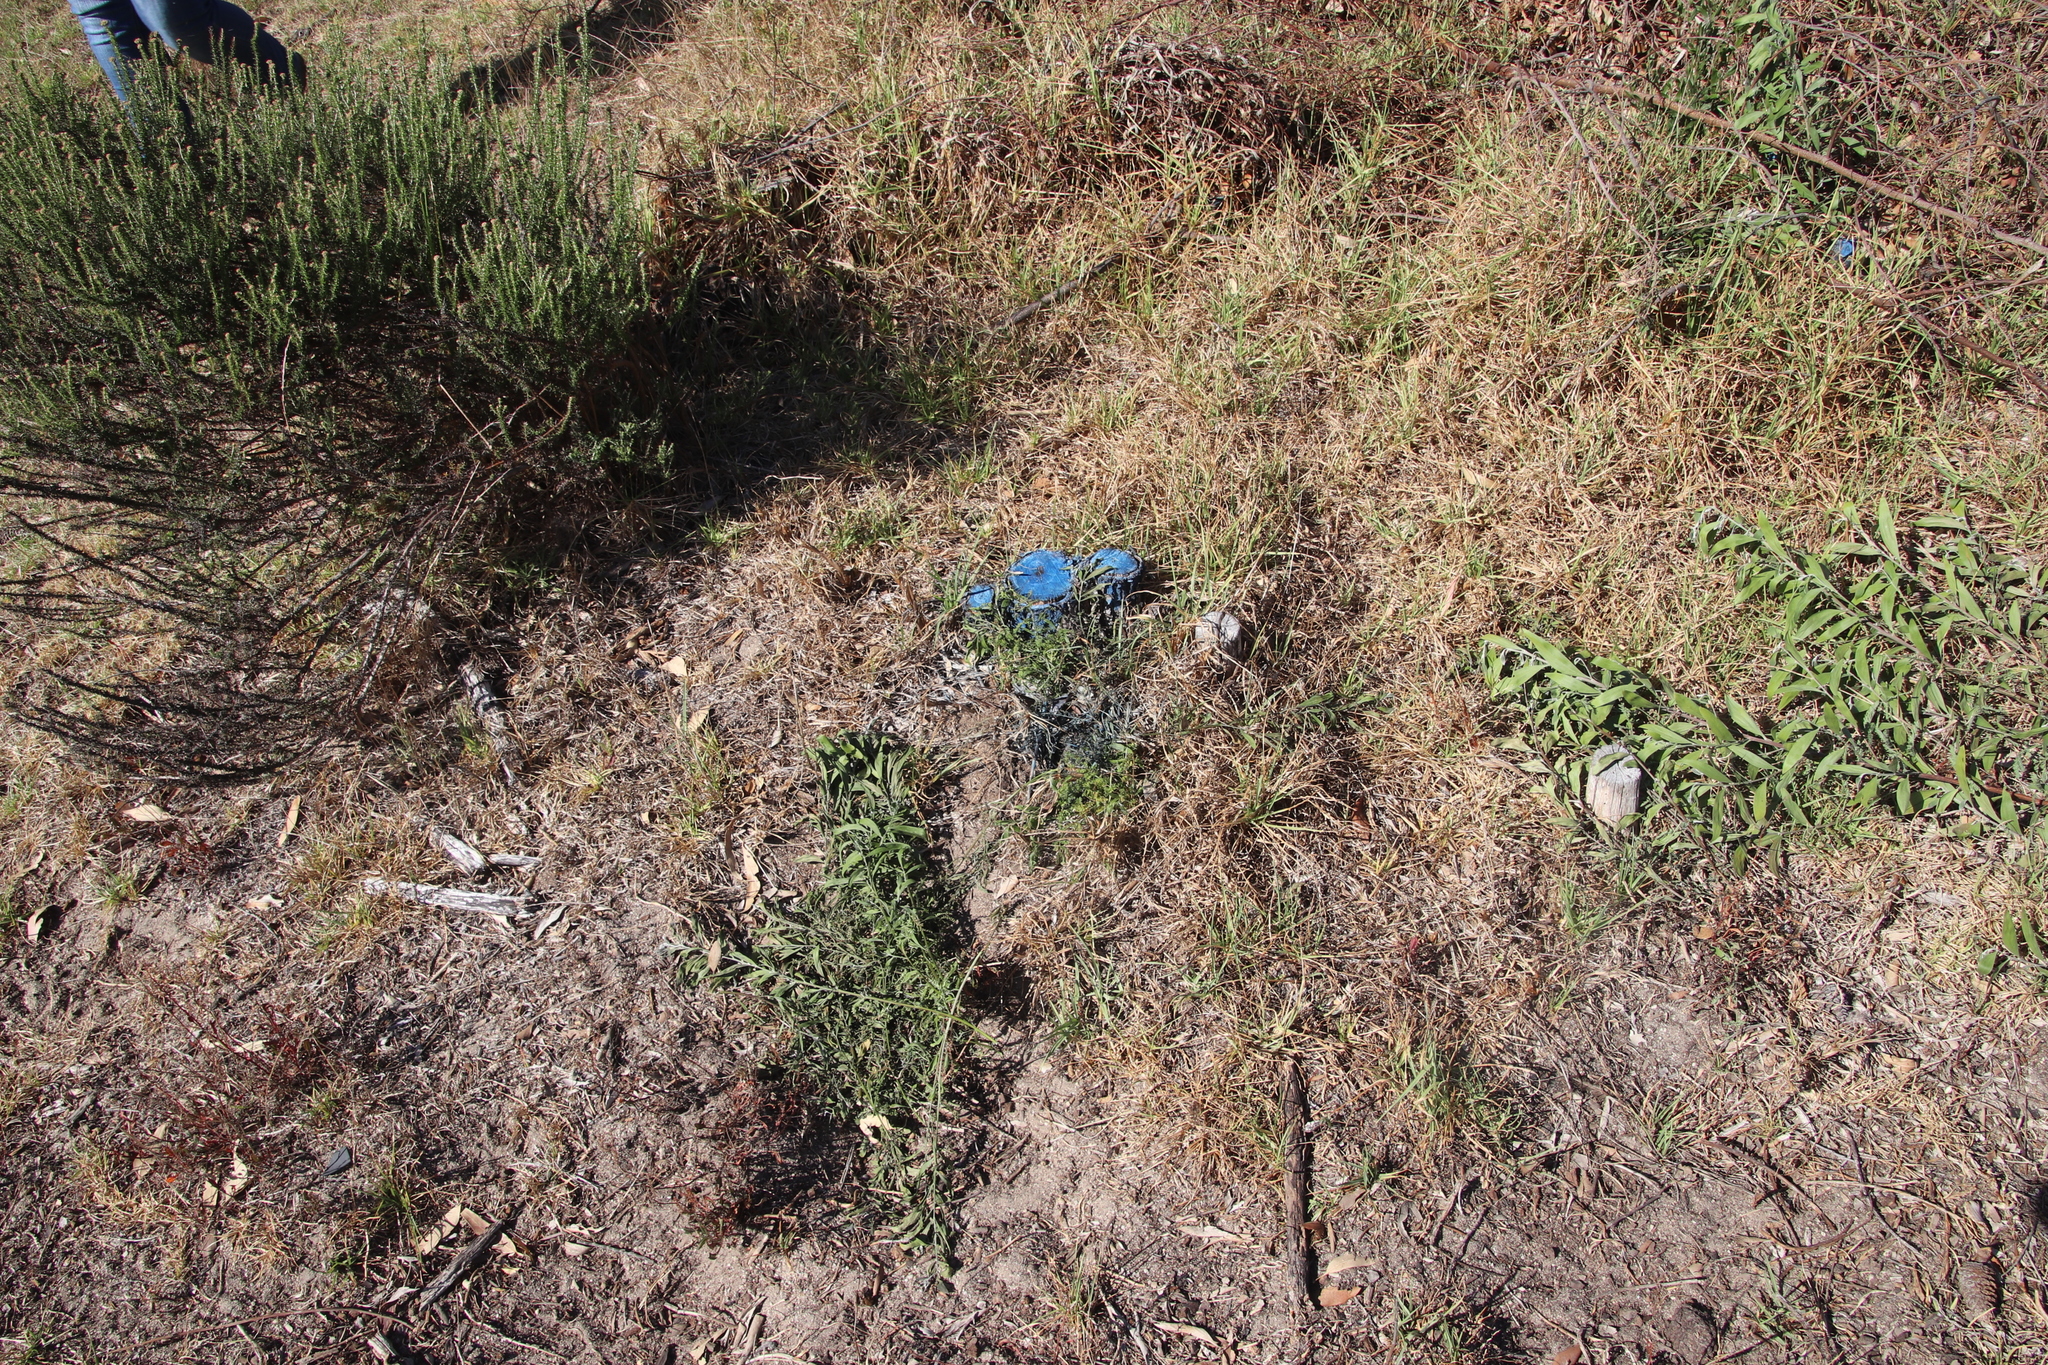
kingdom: Plantae
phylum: Tracheophyta
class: Magnoliopsida
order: Fabales
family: Fabaceae
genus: Acacia
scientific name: Acacia melanoxylon
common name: Blackwood
